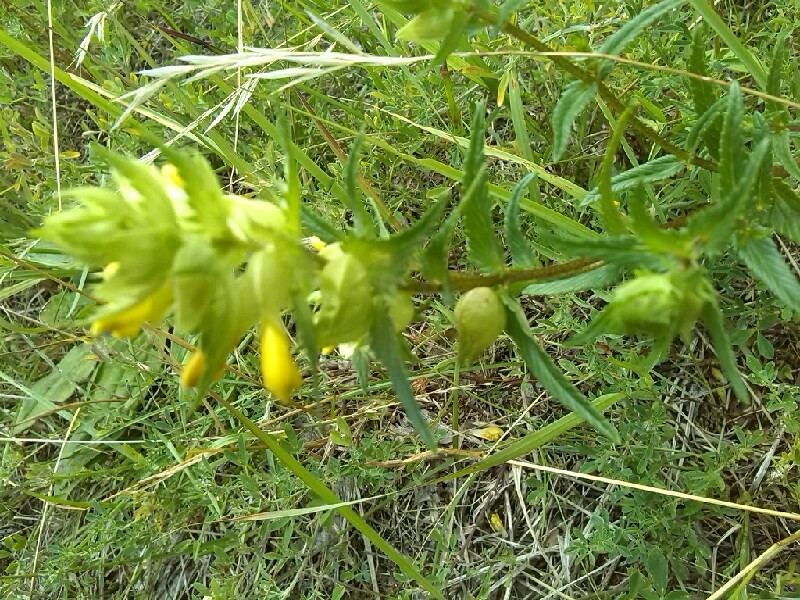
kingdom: Plantae
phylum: Tracheophyta
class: Magnoliopsida
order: Lamiales
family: Orobanchaceae
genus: Rhinanthus
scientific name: Rhinanthus serotinus
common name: Late-flowering yellow rattle
